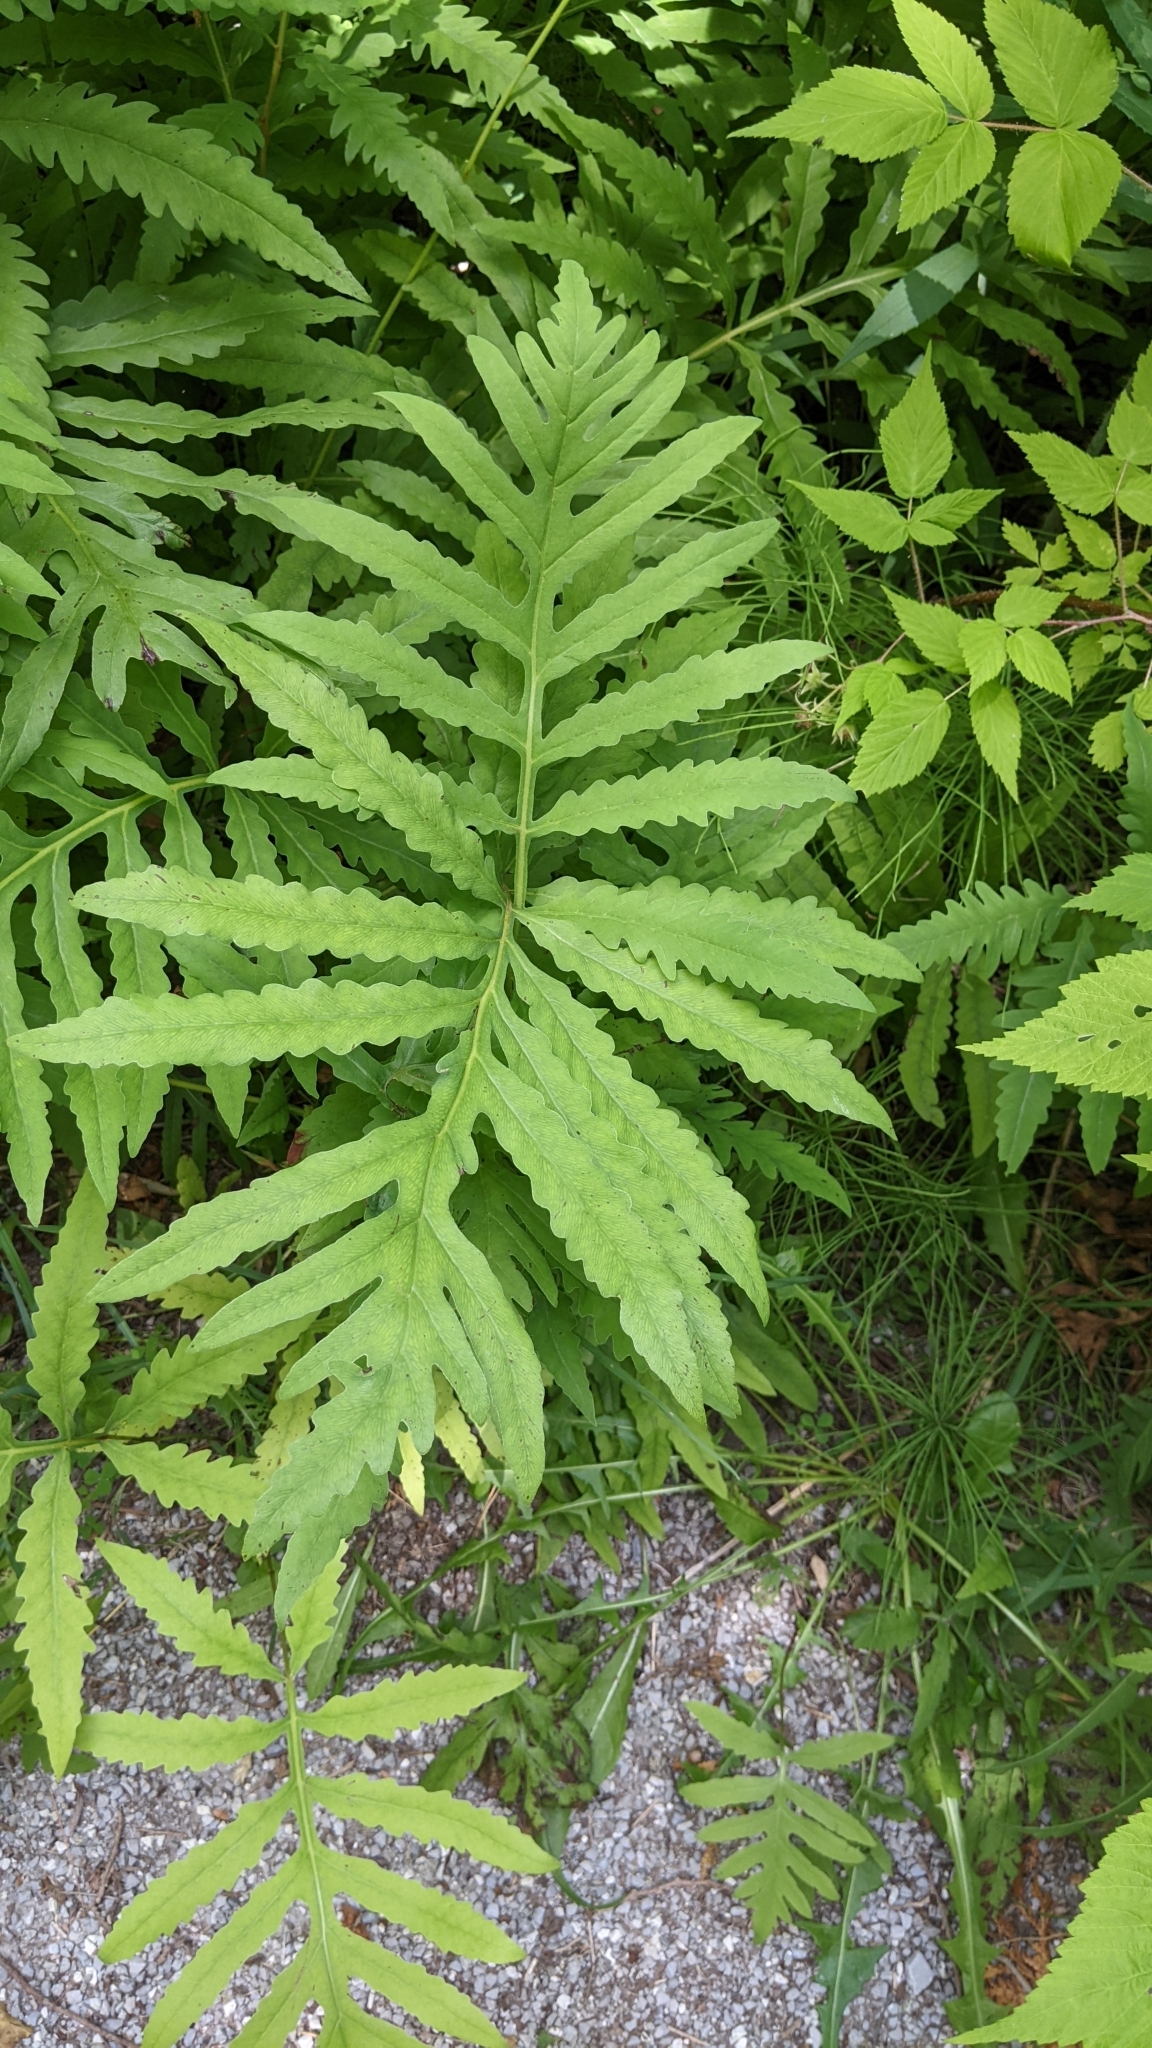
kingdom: Plantae
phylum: Tracheophyta
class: Polypodiopsida
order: Polypodiales
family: Onocleaceae
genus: Onoclea
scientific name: Onoclea sensibilis
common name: Sensitive fern
